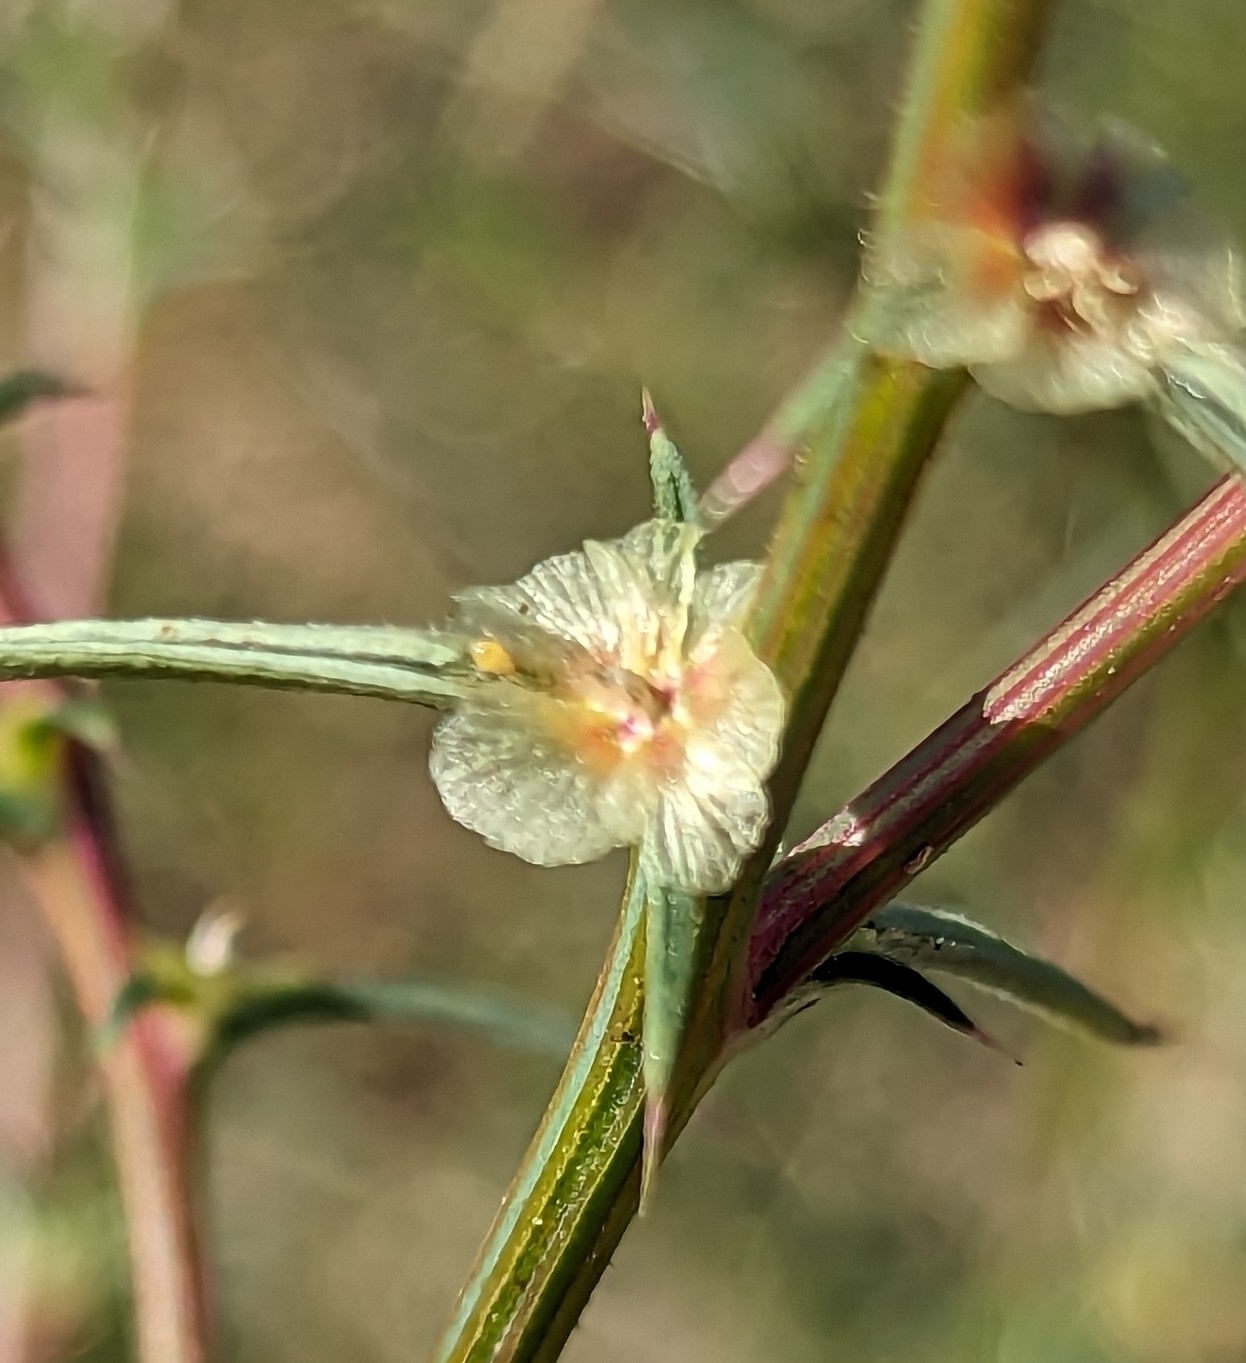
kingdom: Plantae
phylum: Tracheophyta
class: Magnoliopsida
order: Caryophyllales
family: Amaranthaceae
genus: Salsola
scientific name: Salsola australis
